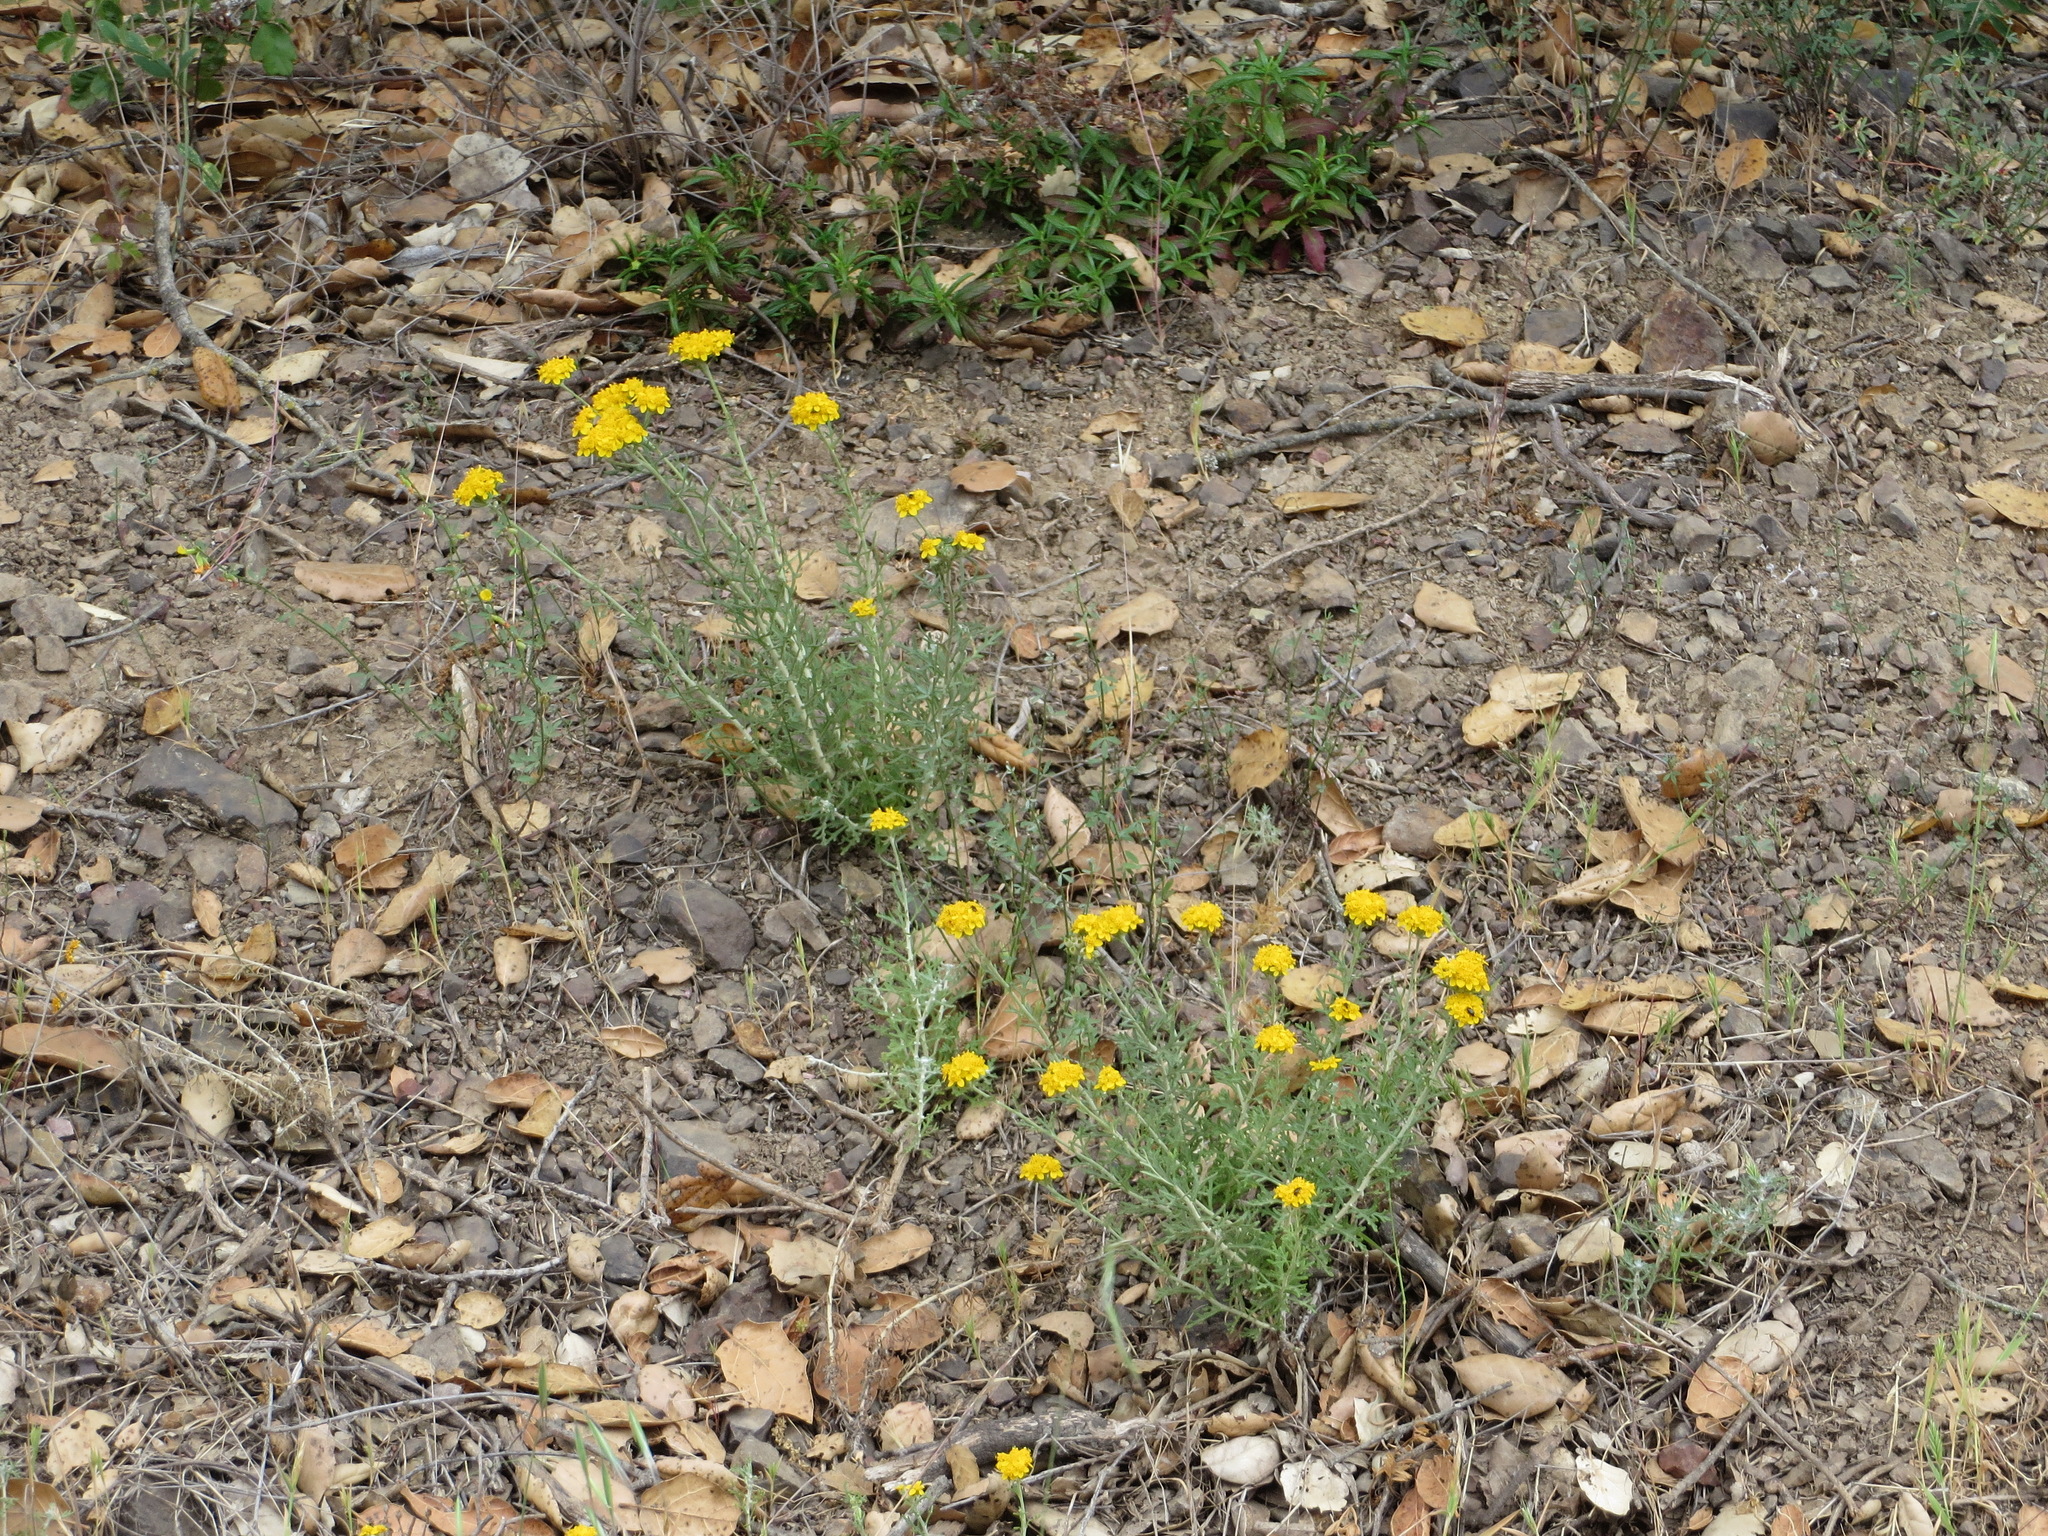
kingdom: Plantae
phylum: Tracheophyta
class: Magnoliopsida
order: Asterales
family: Asteraceae
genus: Eriophyllum
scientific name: Eriophyllum confertiflorum
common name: Golden-yarrow
